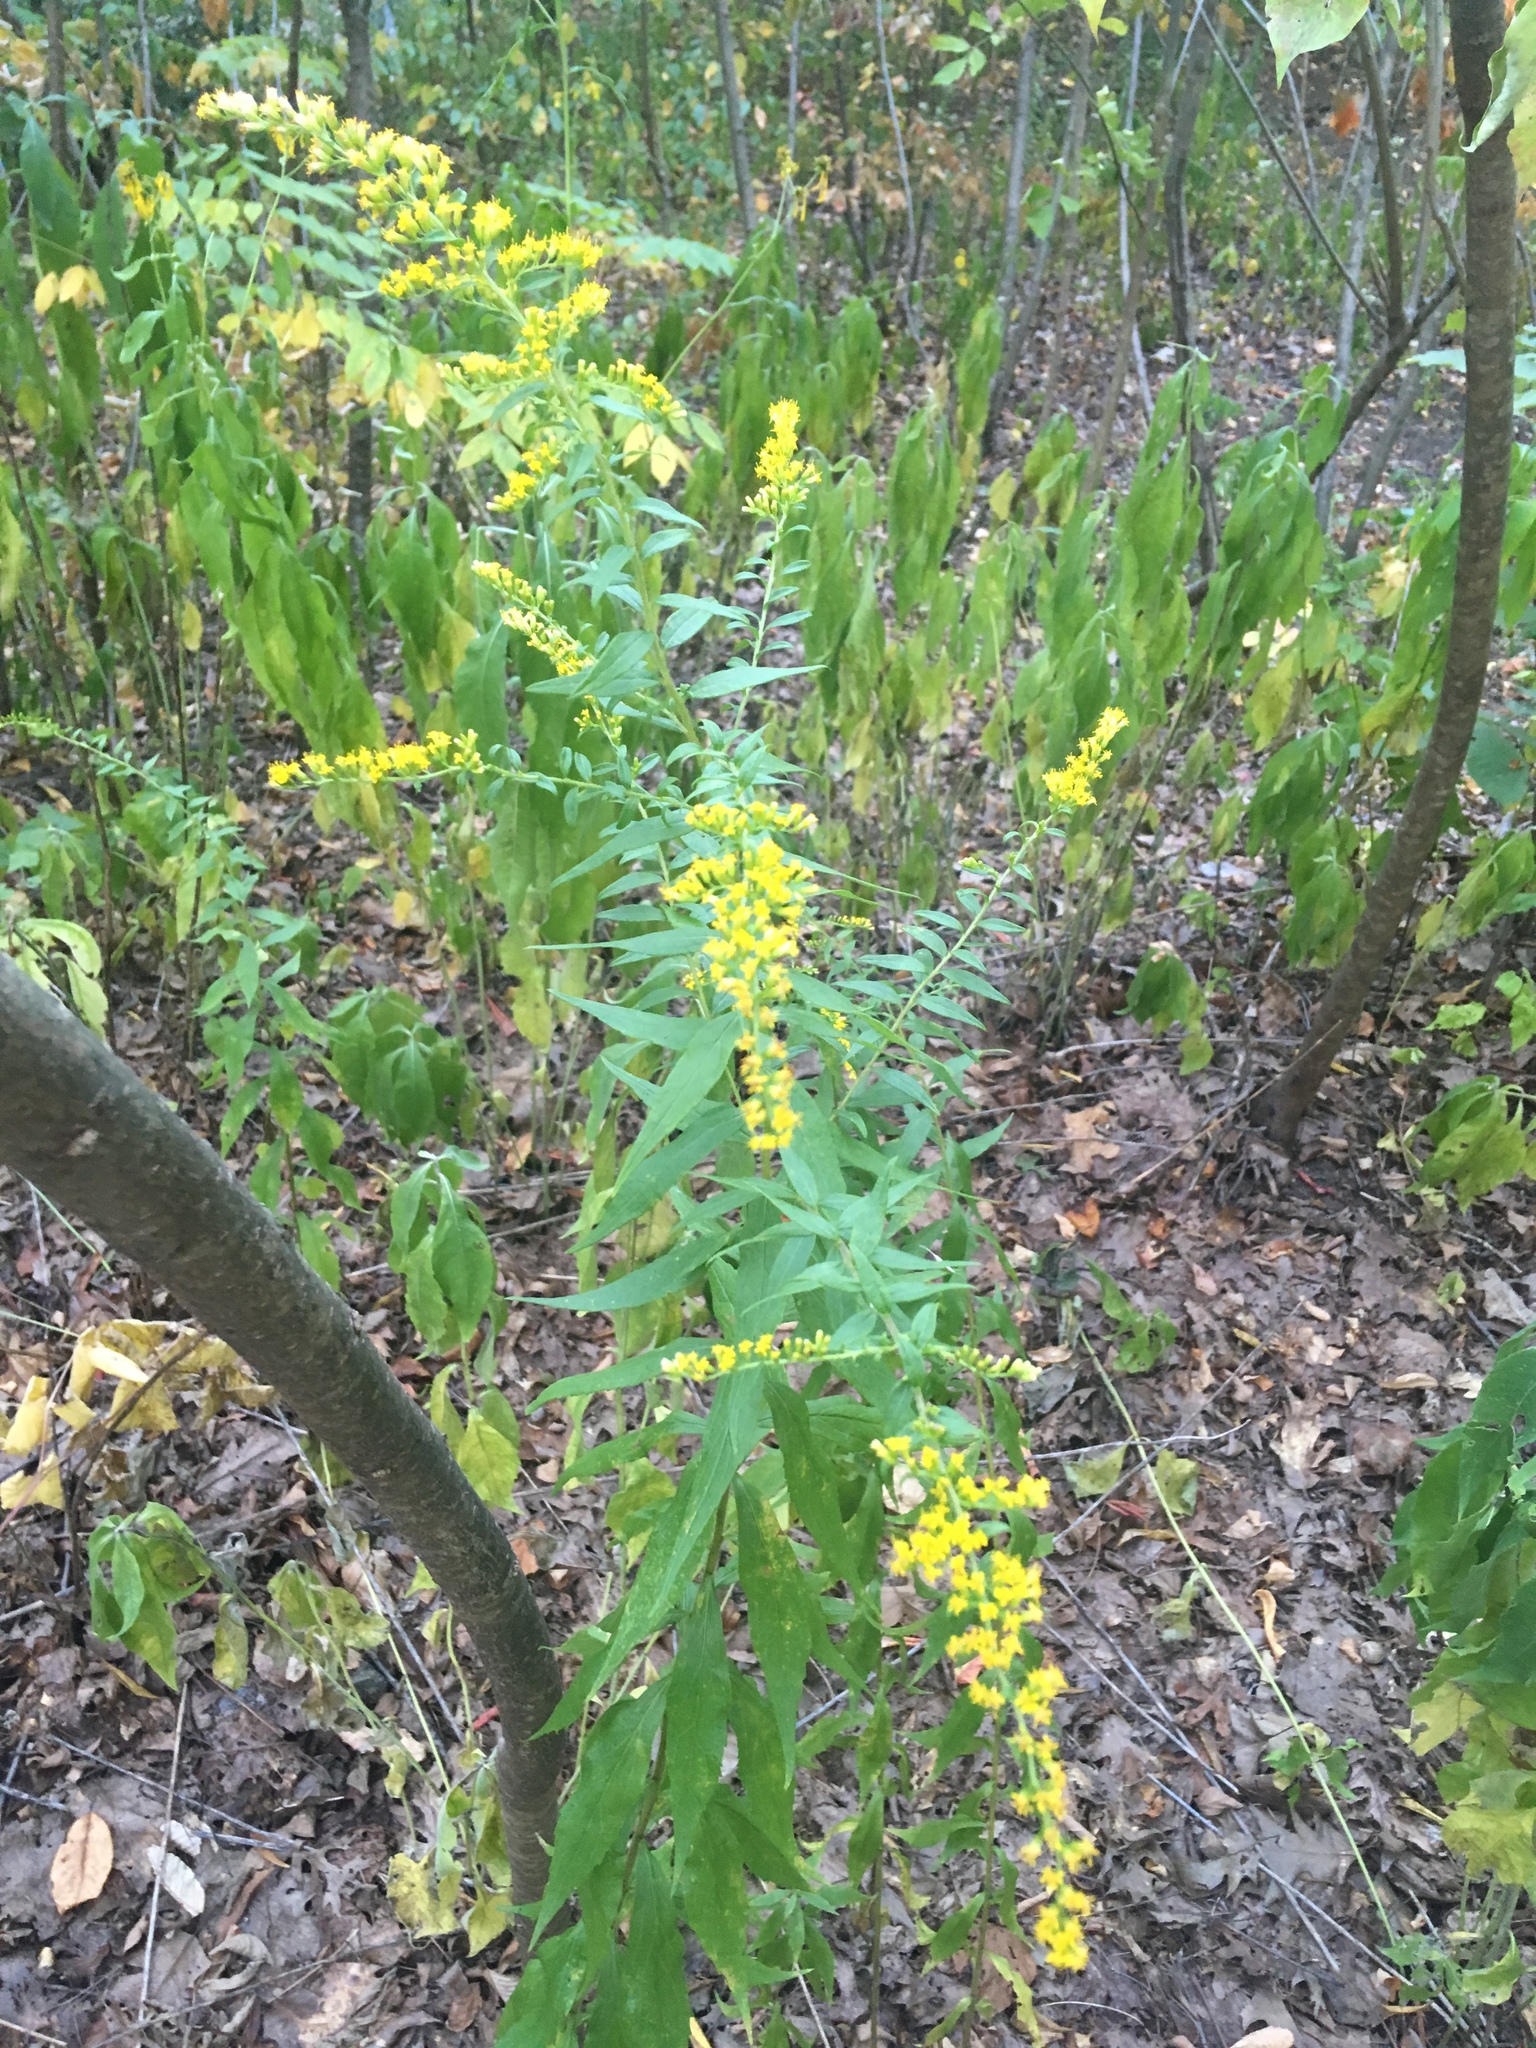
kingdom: Plantae
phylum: Tracheophyta
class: Magnoliopsida
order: Asterales
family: Asteraceae
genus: Solidago
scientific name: Solidago rugosa
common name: Rough-stemmed goldenrod
